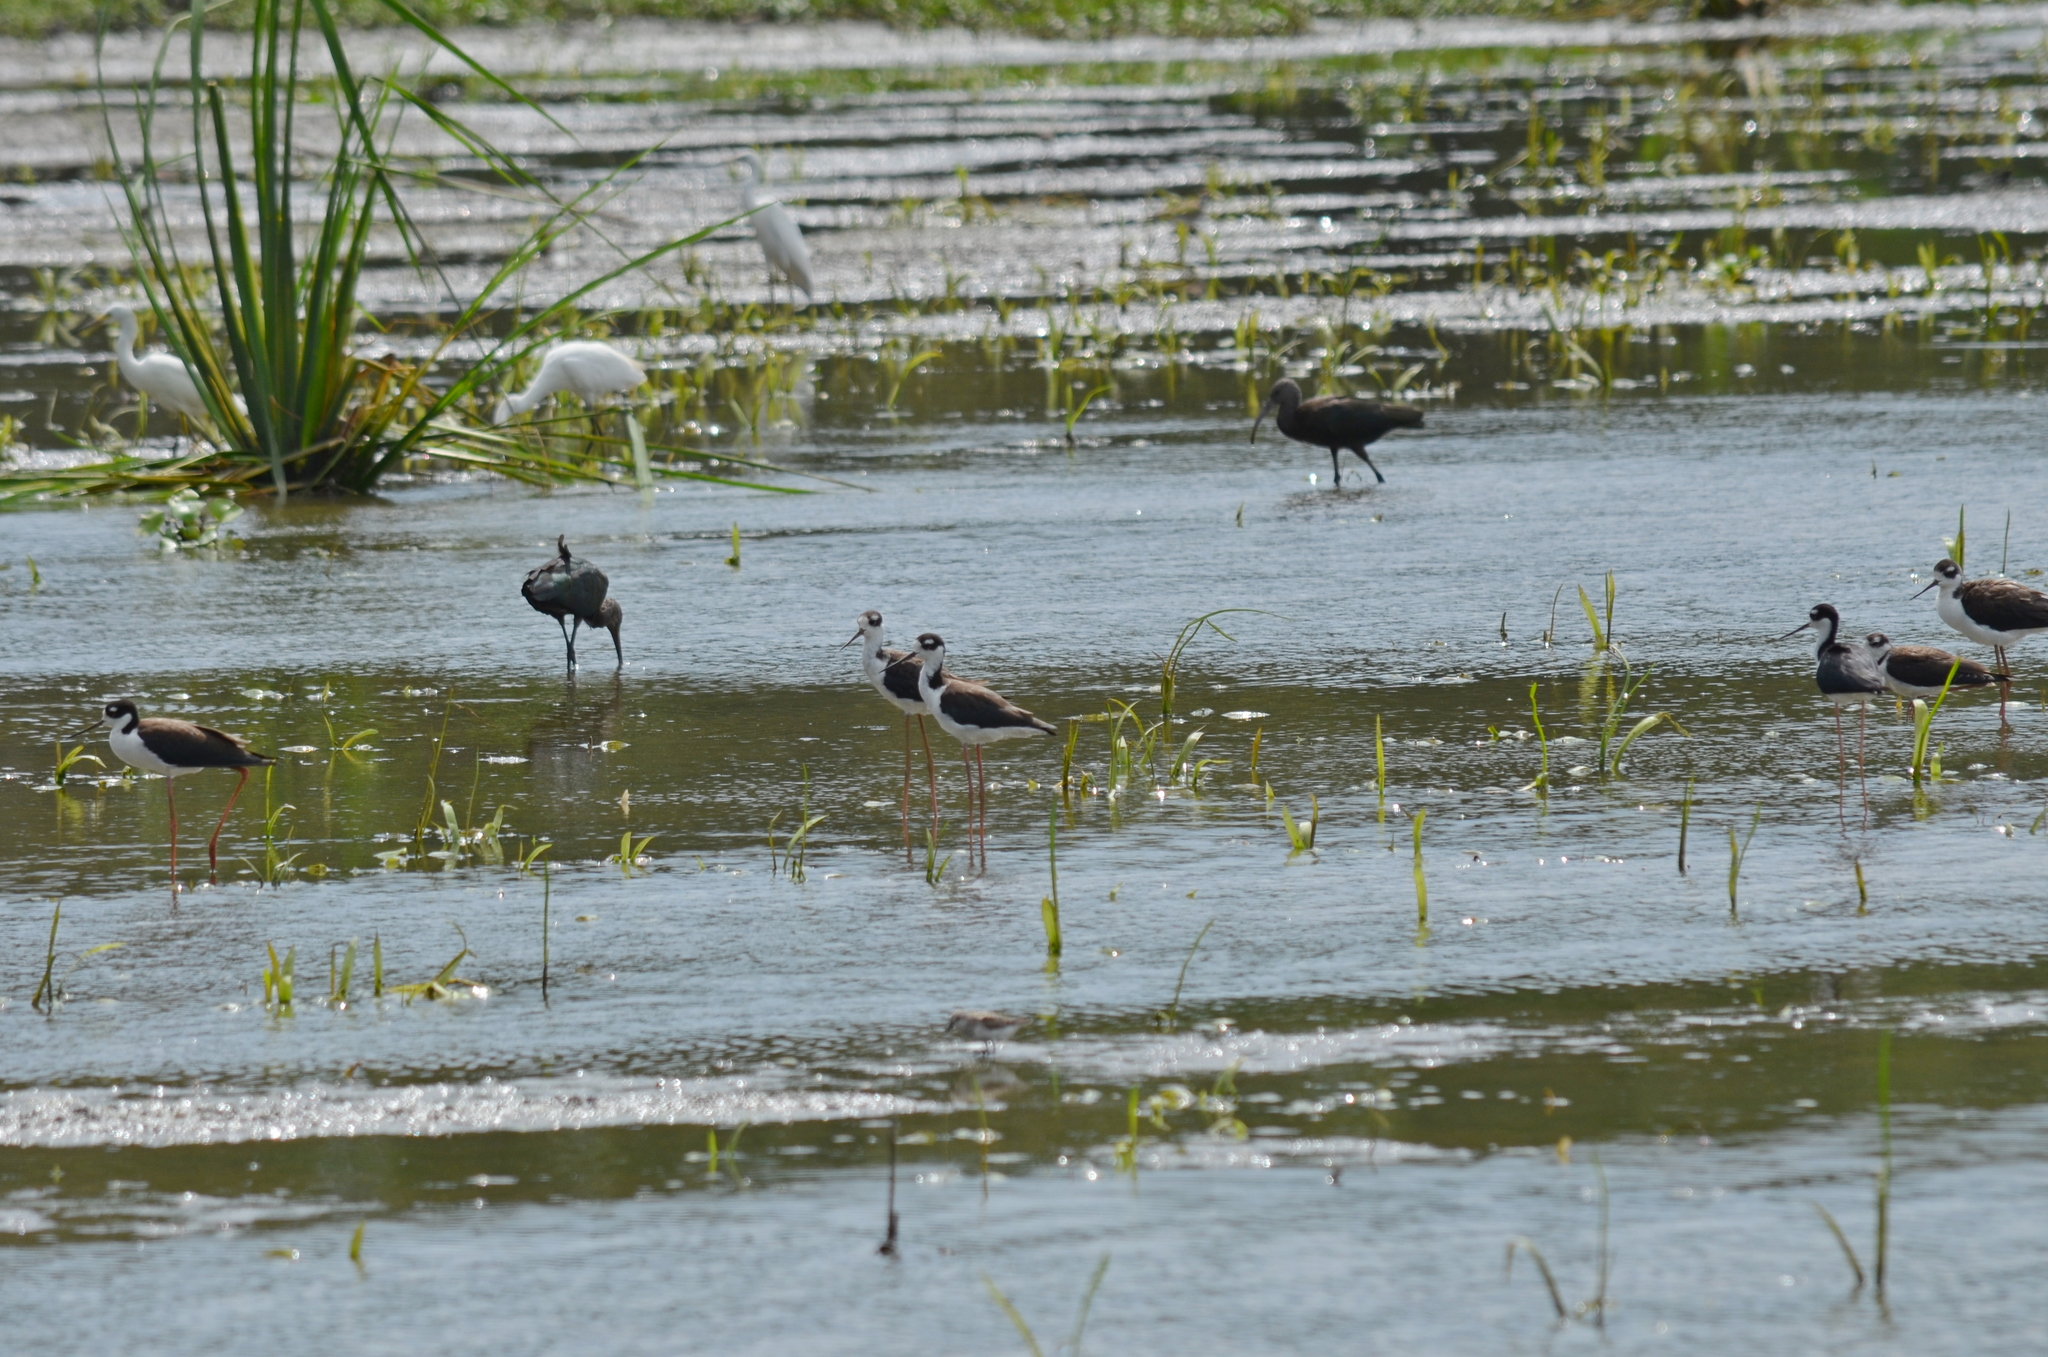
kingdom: Animalia
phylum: Chordata
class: Aves
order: Charadriiformes
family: Recurvirostridae
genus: Himantopus
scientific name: Himantopus mexicanus
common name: Black-necked stilt
